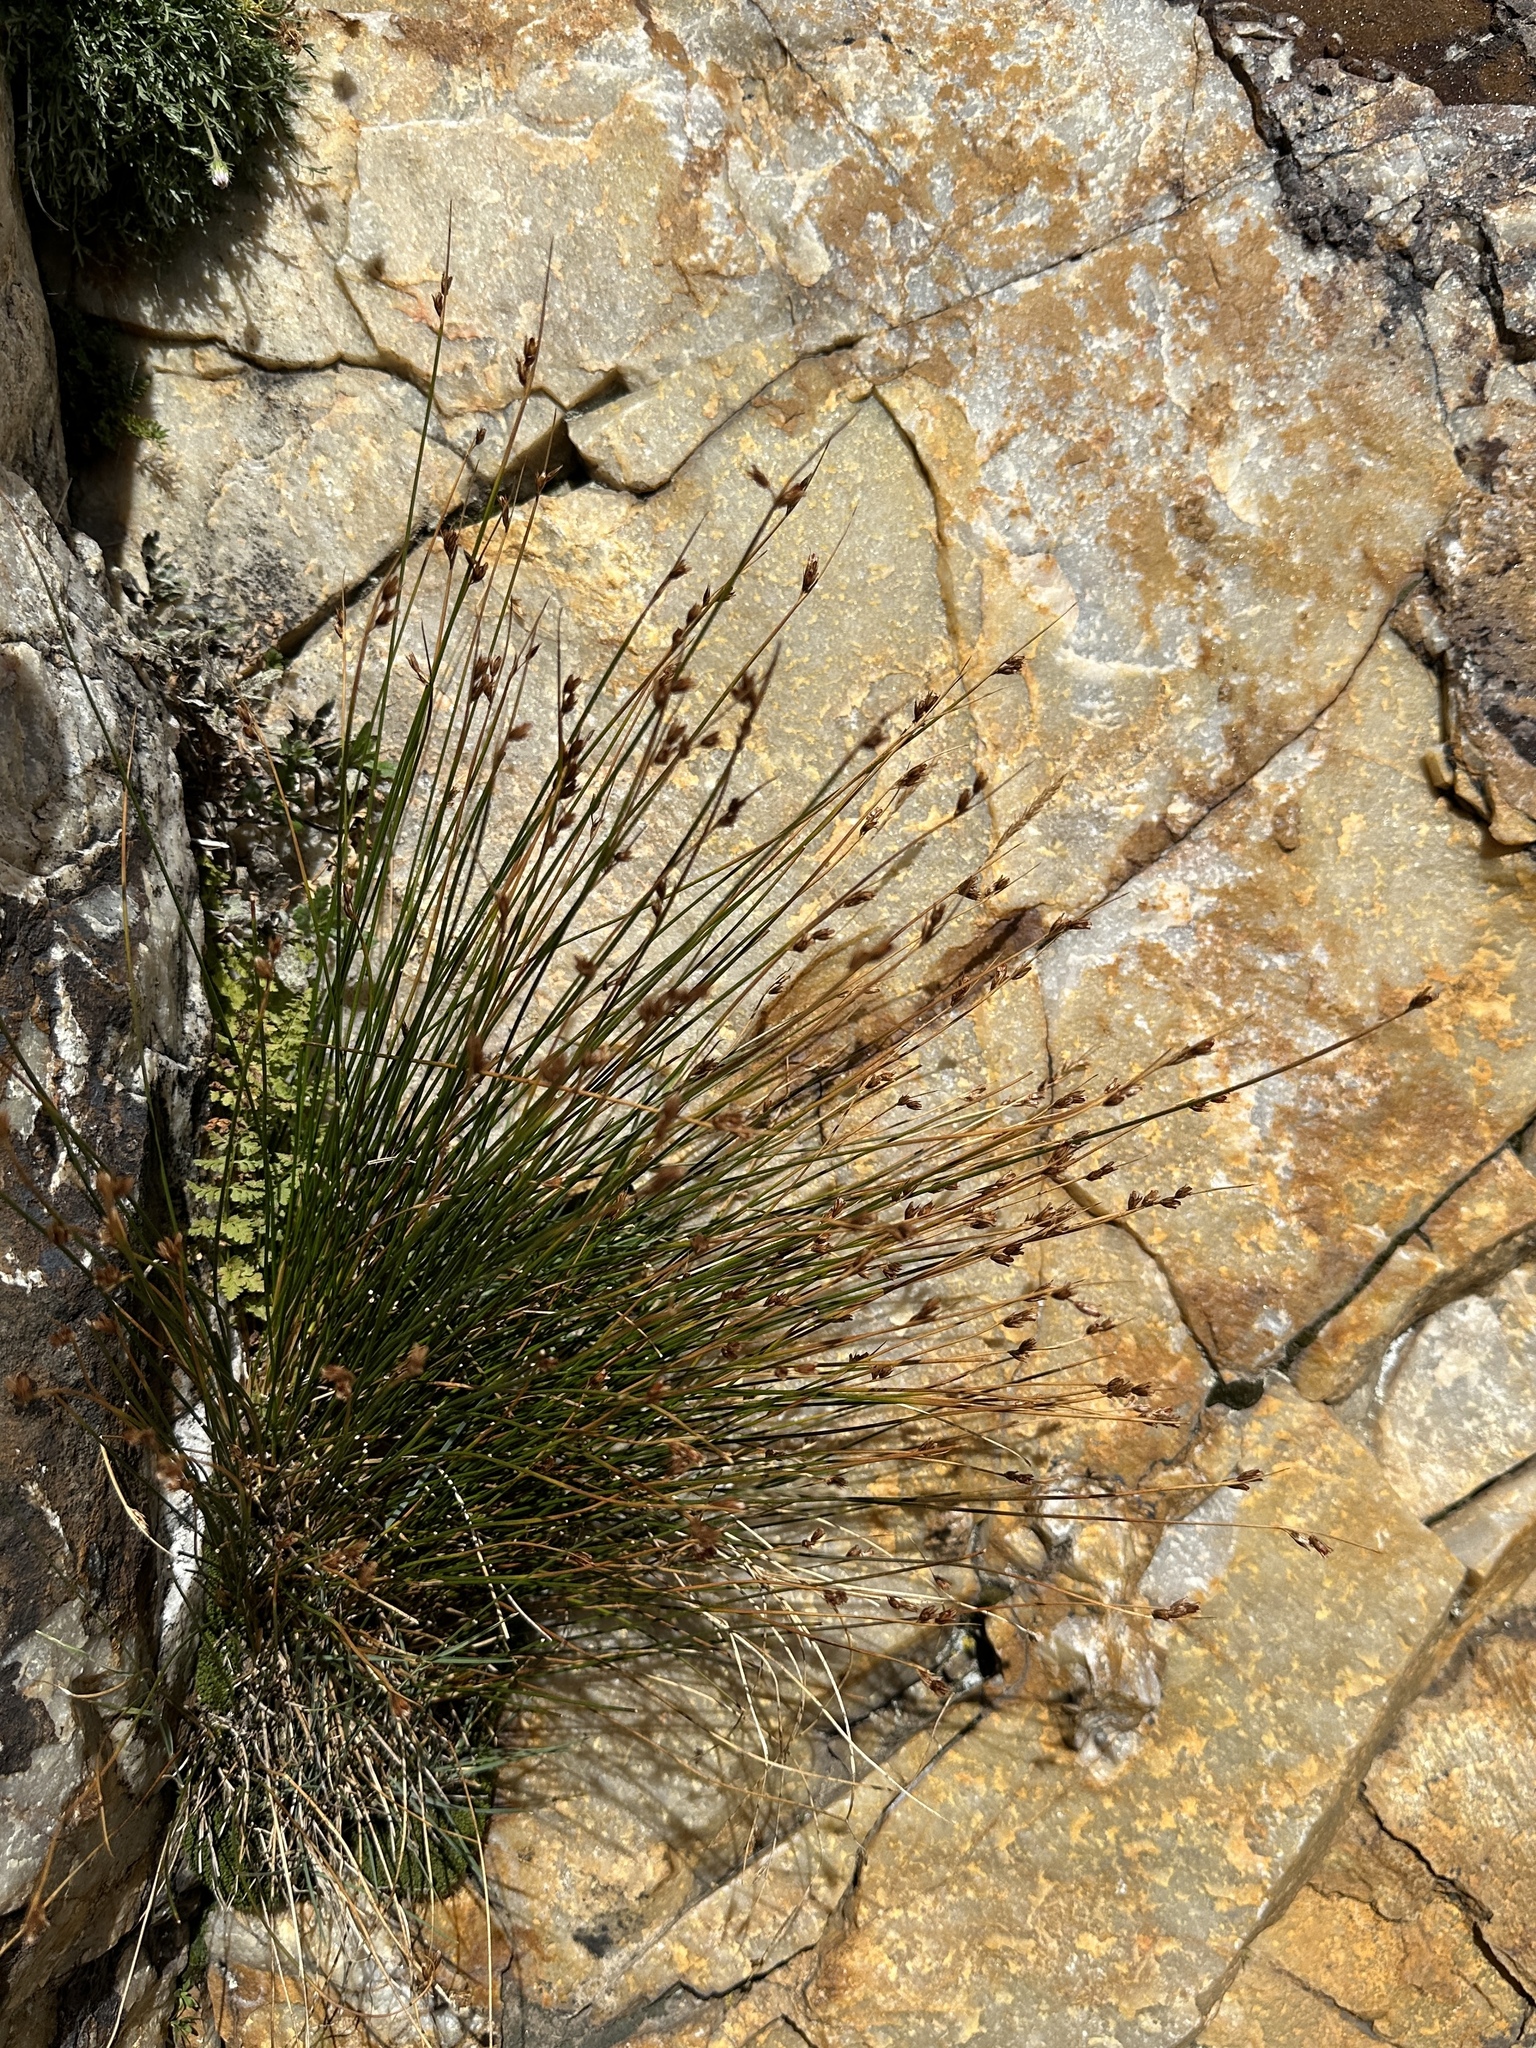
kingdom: Plantae
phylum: Tracheophyta
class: Liliopsida
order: Poales
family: Juncaceae
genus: Juncus
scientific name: Juncus parryi
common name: Parry's rush
